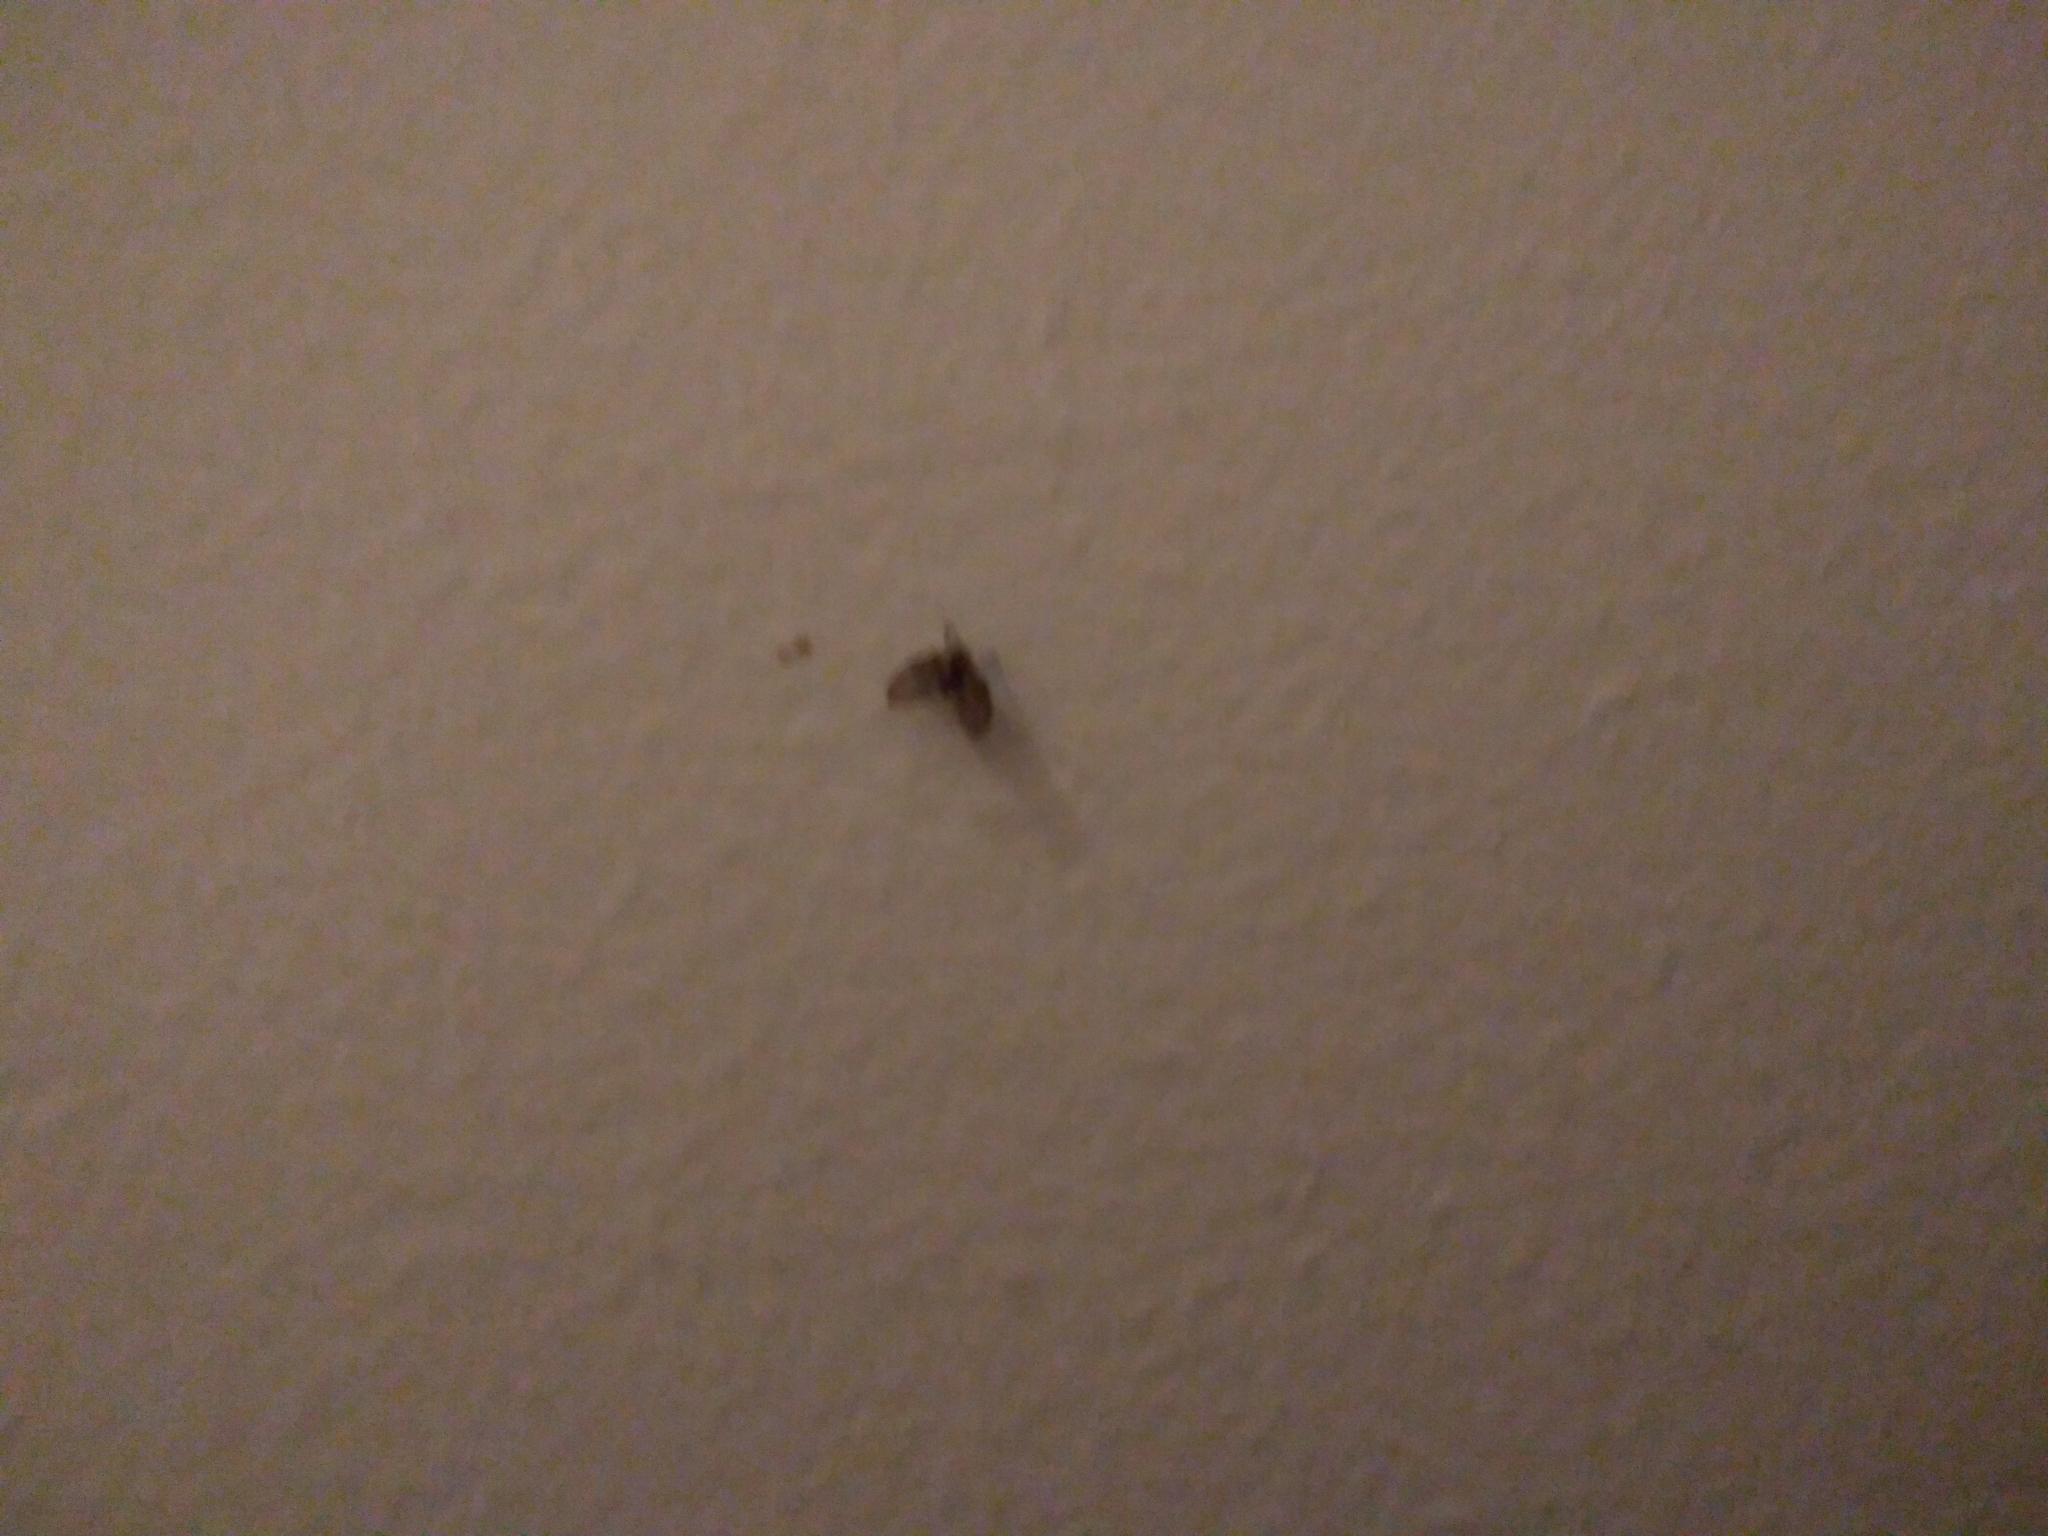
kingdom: Animalia
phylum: Arthropoda
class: Insecta
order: Diptera
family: Psychodidae
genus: Clogmia
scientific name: Clogmia albipunctatus
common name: White-spotted moth fly
